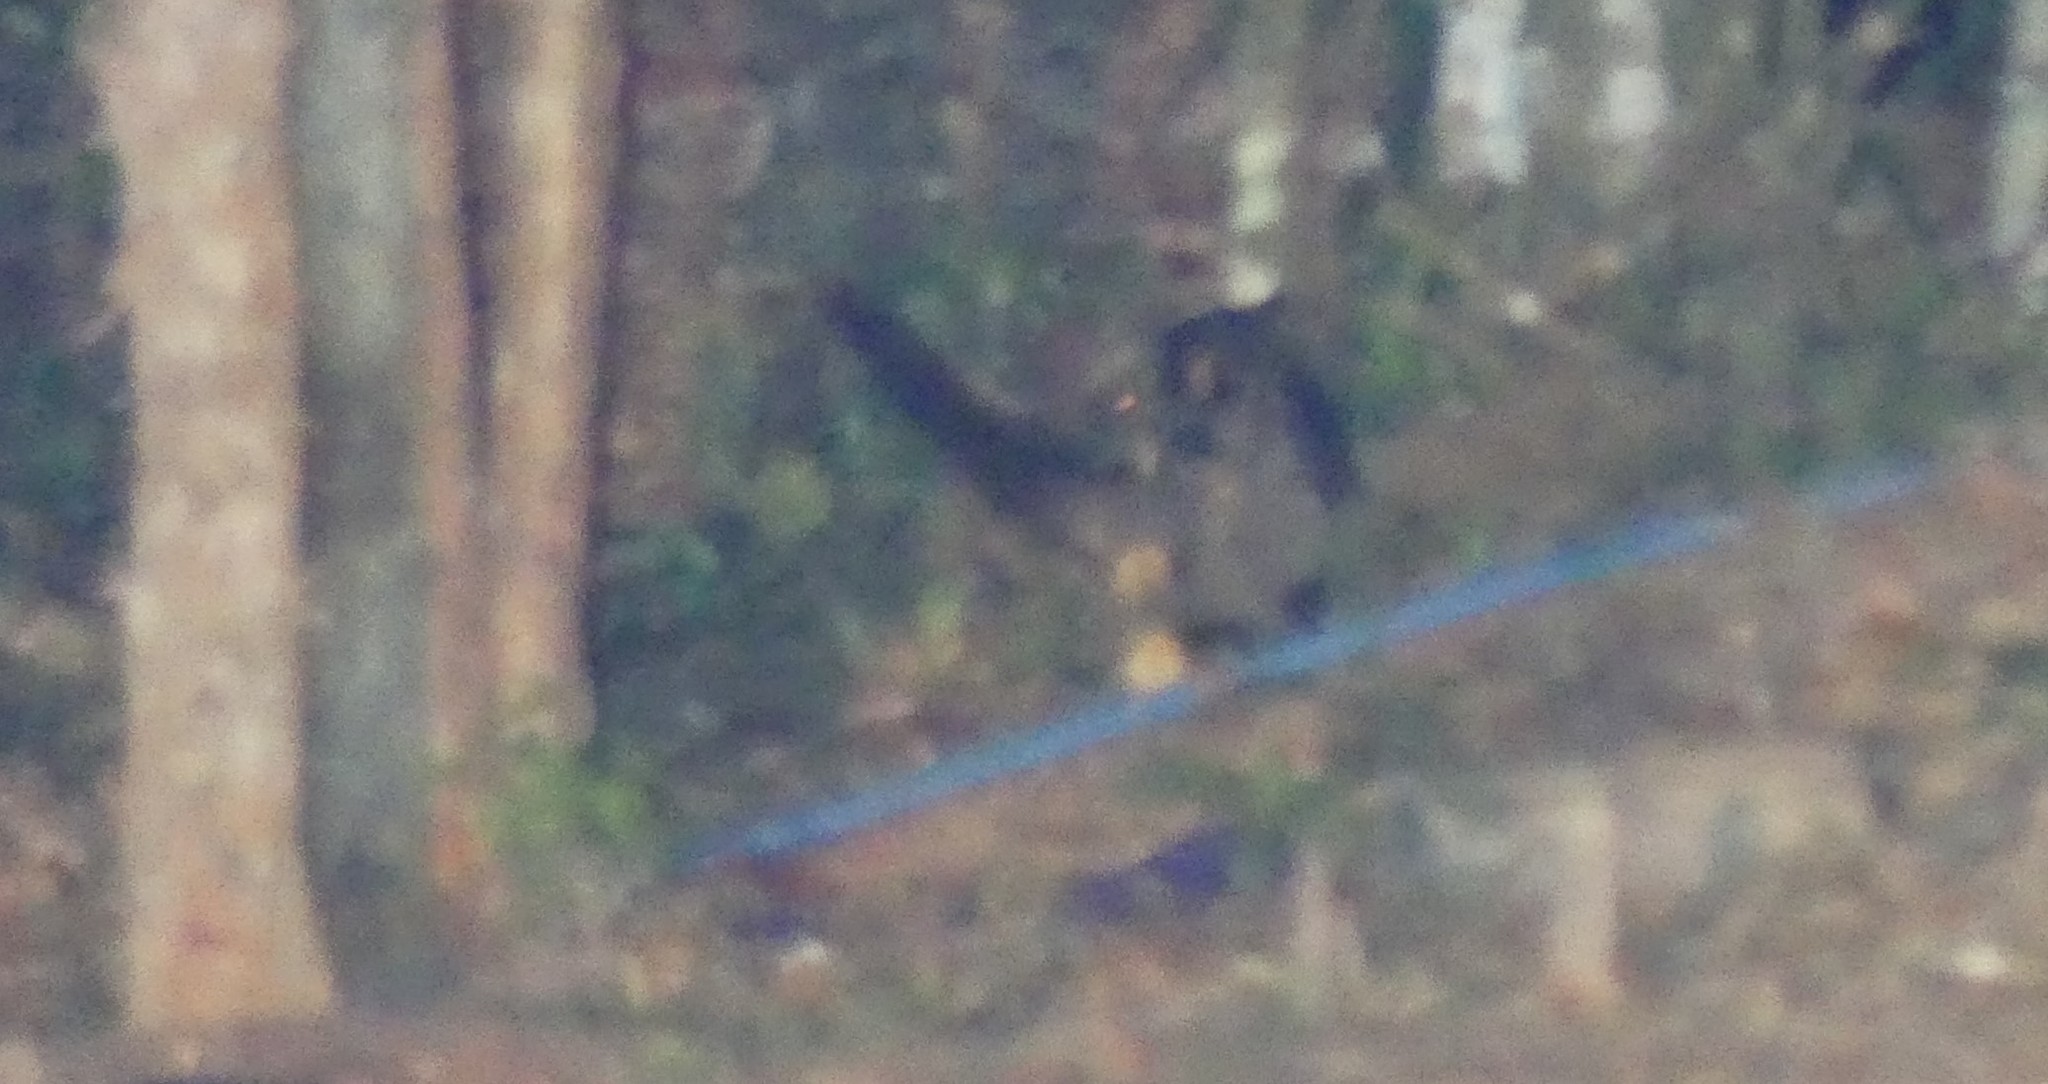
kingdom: Animalia
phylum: Chordata
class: Mammalia
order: Carnivora
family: Viverridae
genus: Paradoxurus
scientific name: Paradoxurus hermaphroditus
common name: Common palm civet
